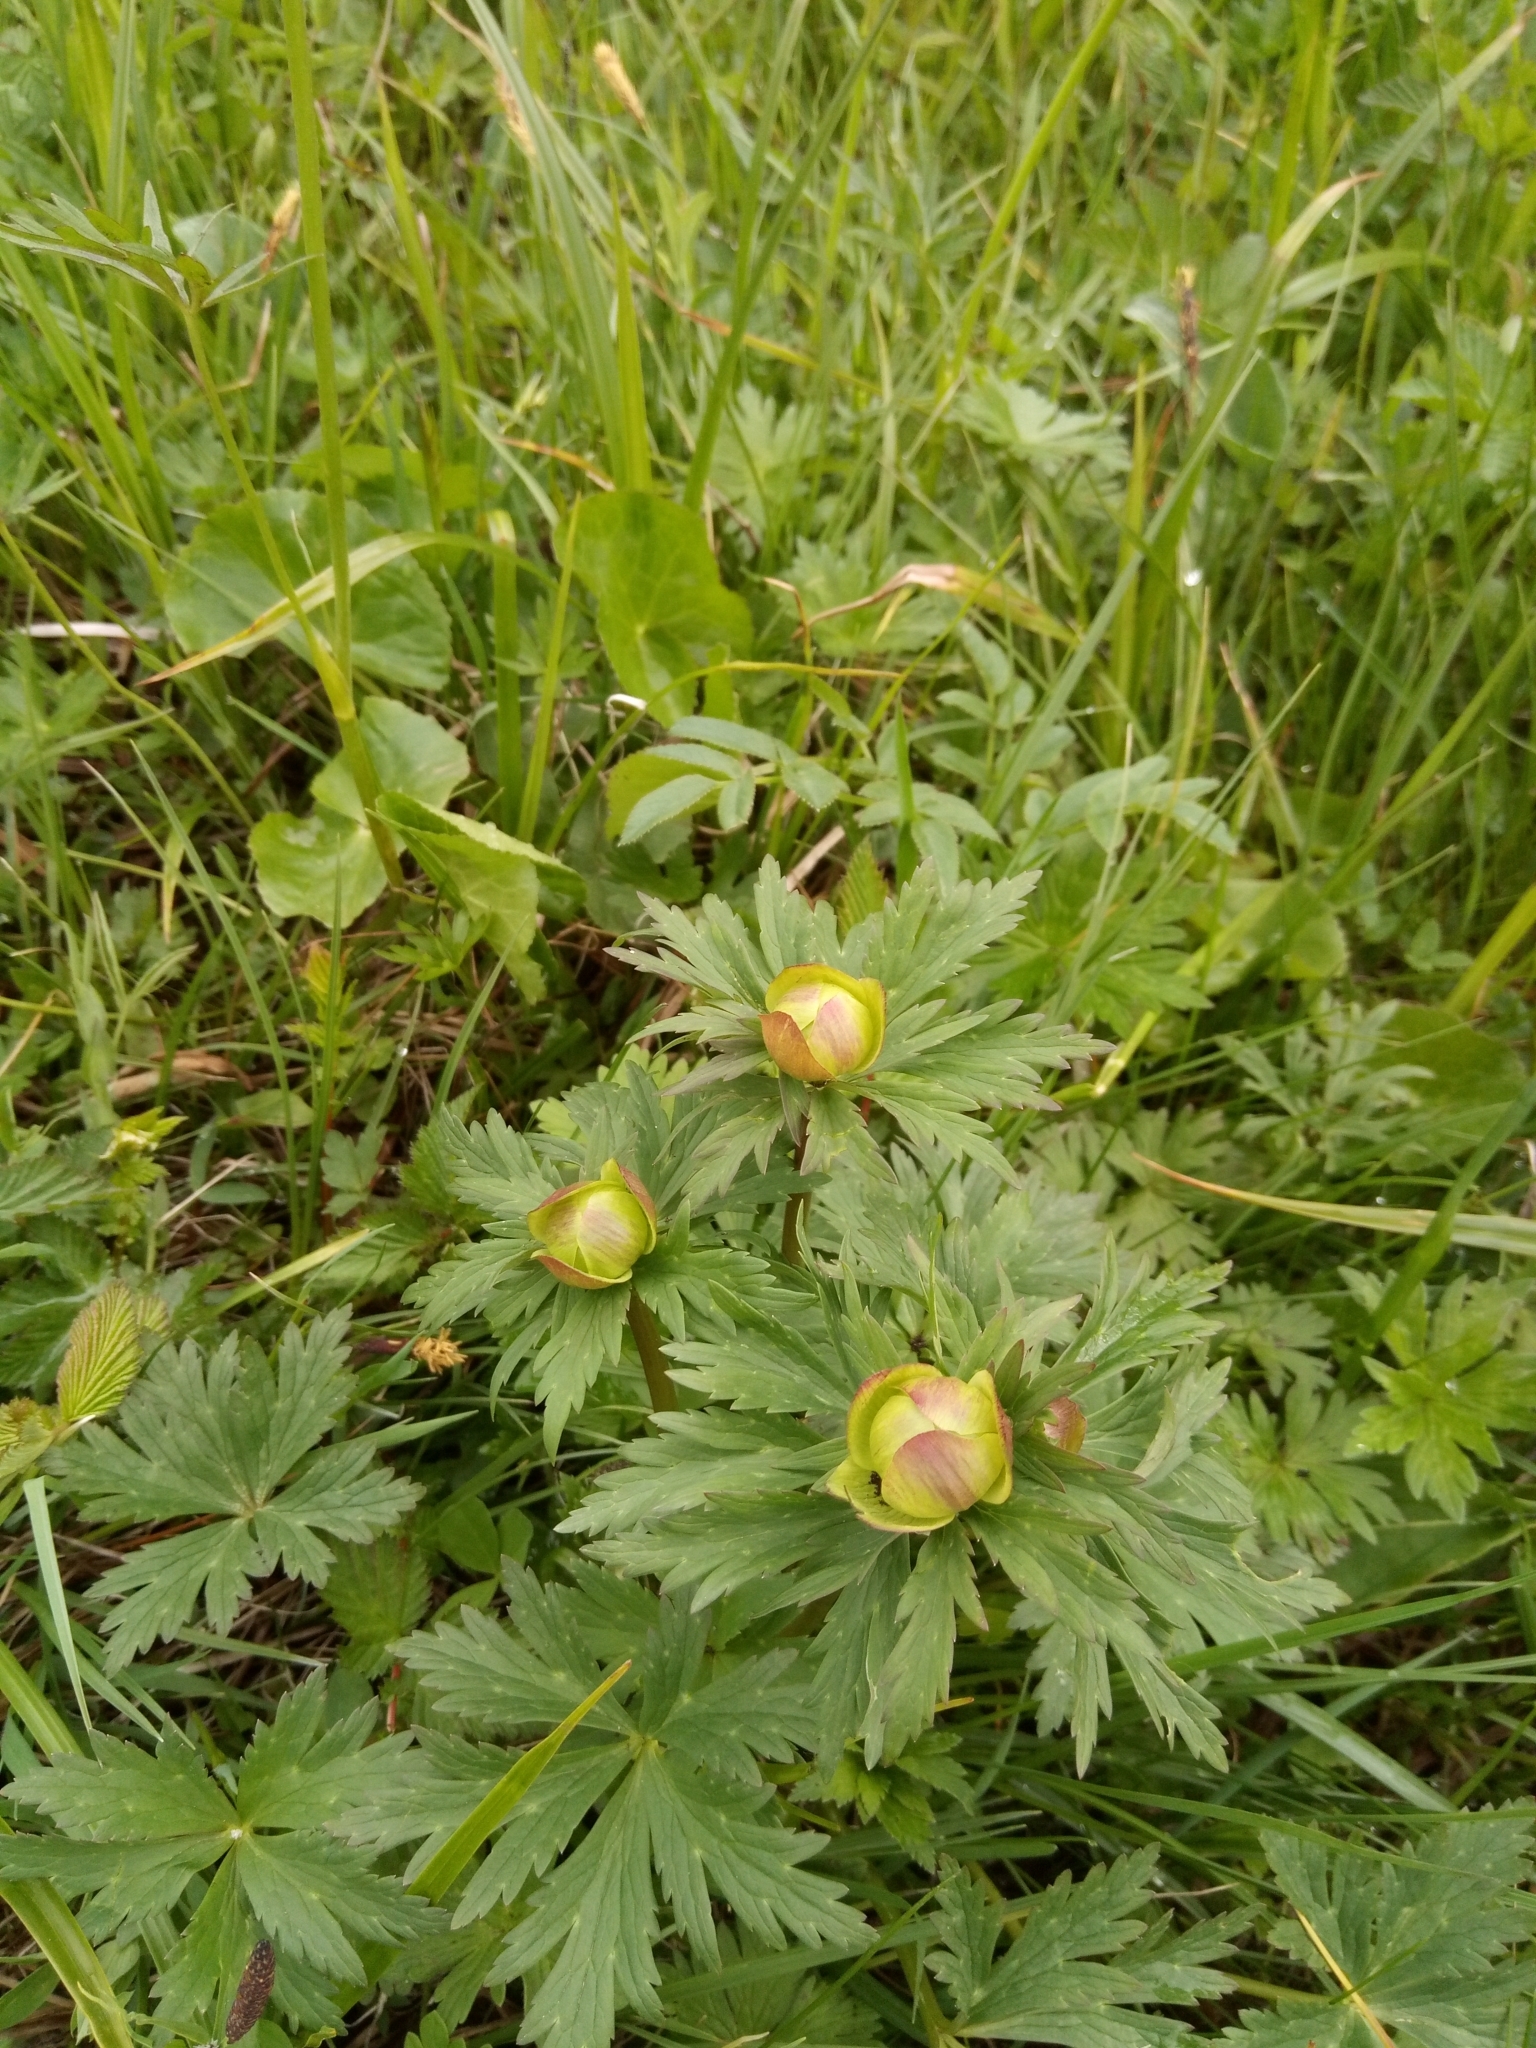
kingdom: Plantae
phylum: Tracheophyta
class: Magnoliopsida
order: Ranunculales
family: Ranunculaceae
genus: Trollius
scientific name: Trollius europaeus
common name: European globeflower
